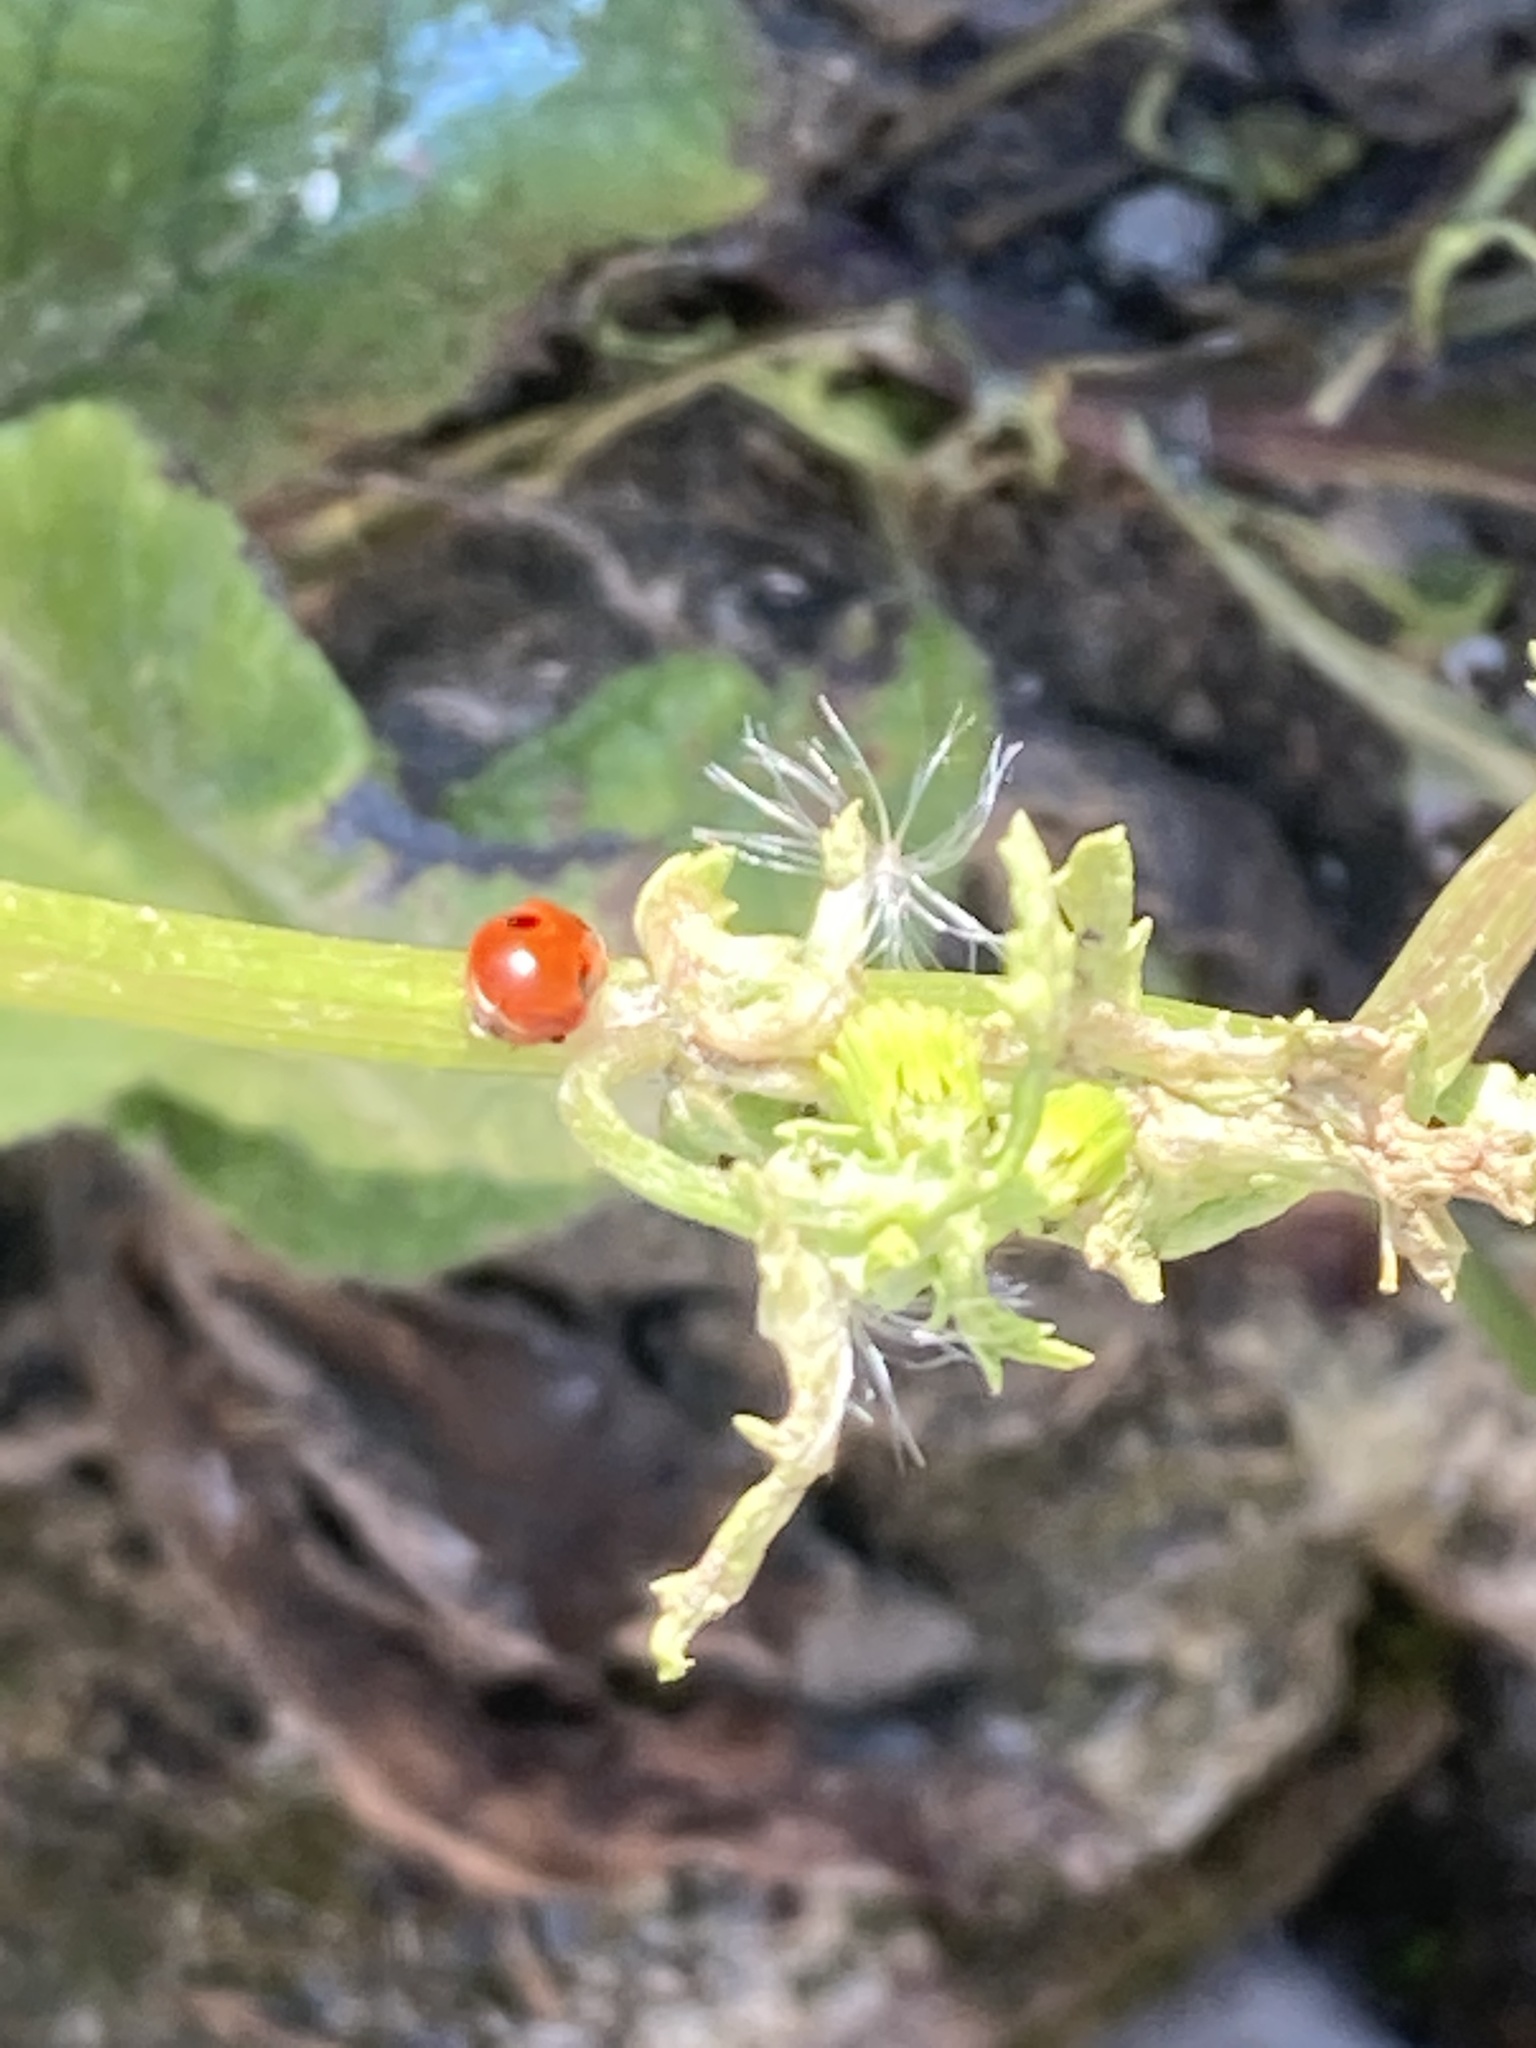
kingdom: Animalia
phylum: Arthropoda
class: Insecta
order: Coleoptera
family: Coccinellidae
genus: Adalia
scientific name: Adalia bipunctata
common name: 2-spot ladybird
